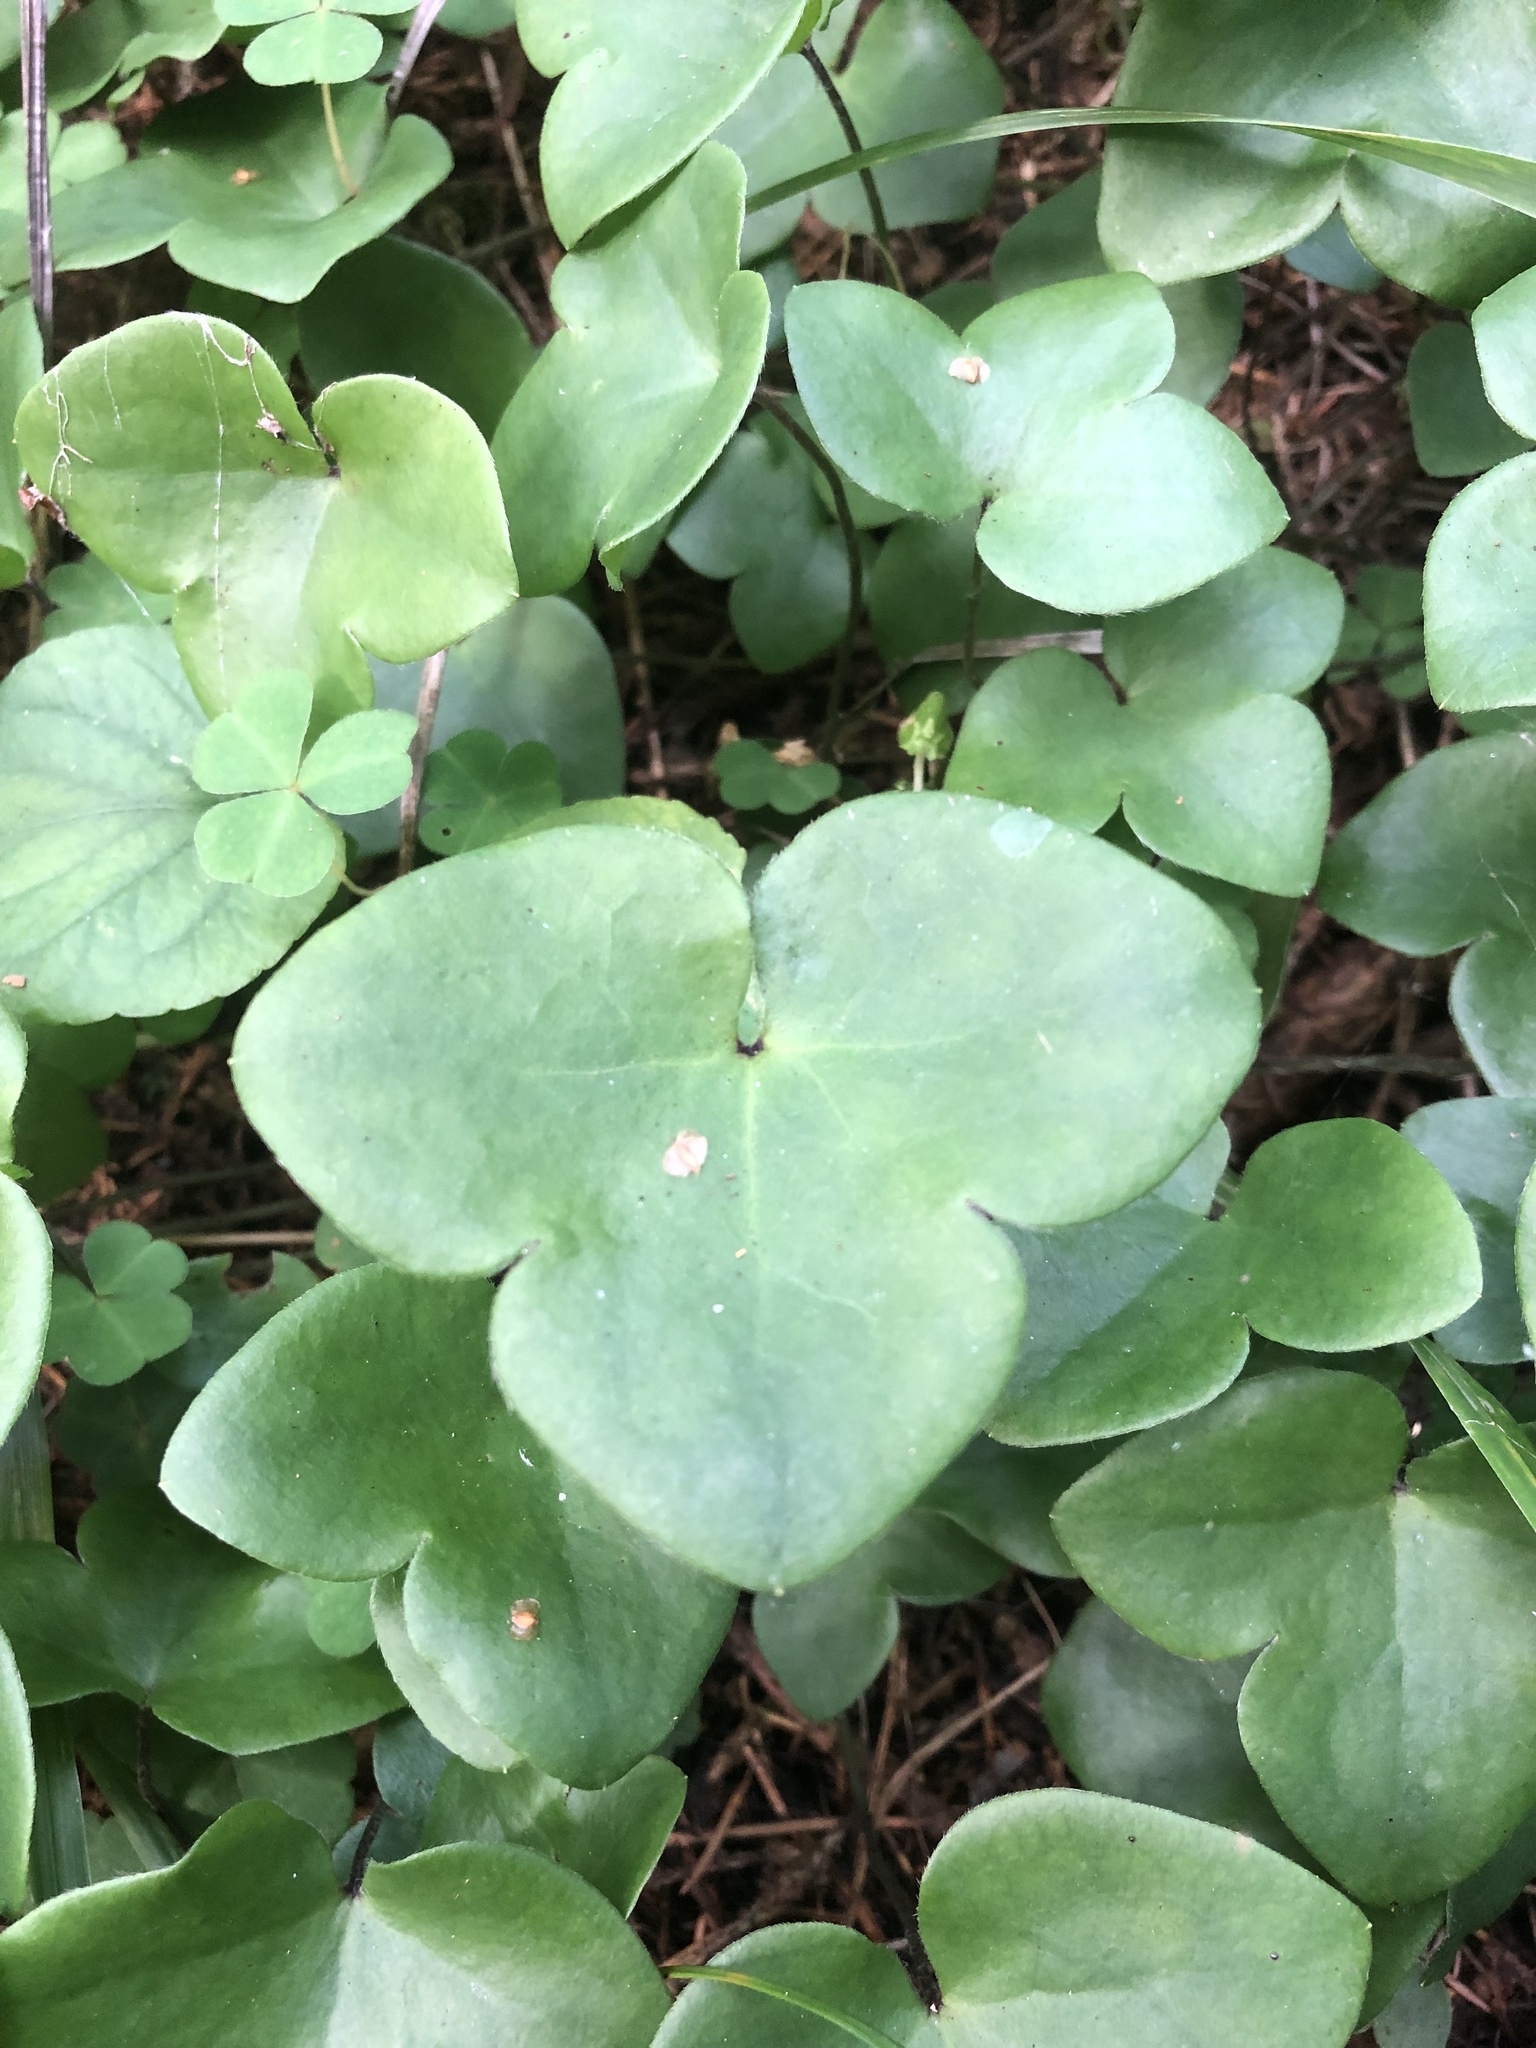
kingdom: Plantae
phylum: Tracheophyta
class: Magnoliopsida
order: Ranunculales
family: Ranunculaceae
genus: Hepatica
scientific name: Hepatica nobilis
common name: Liverleaf
